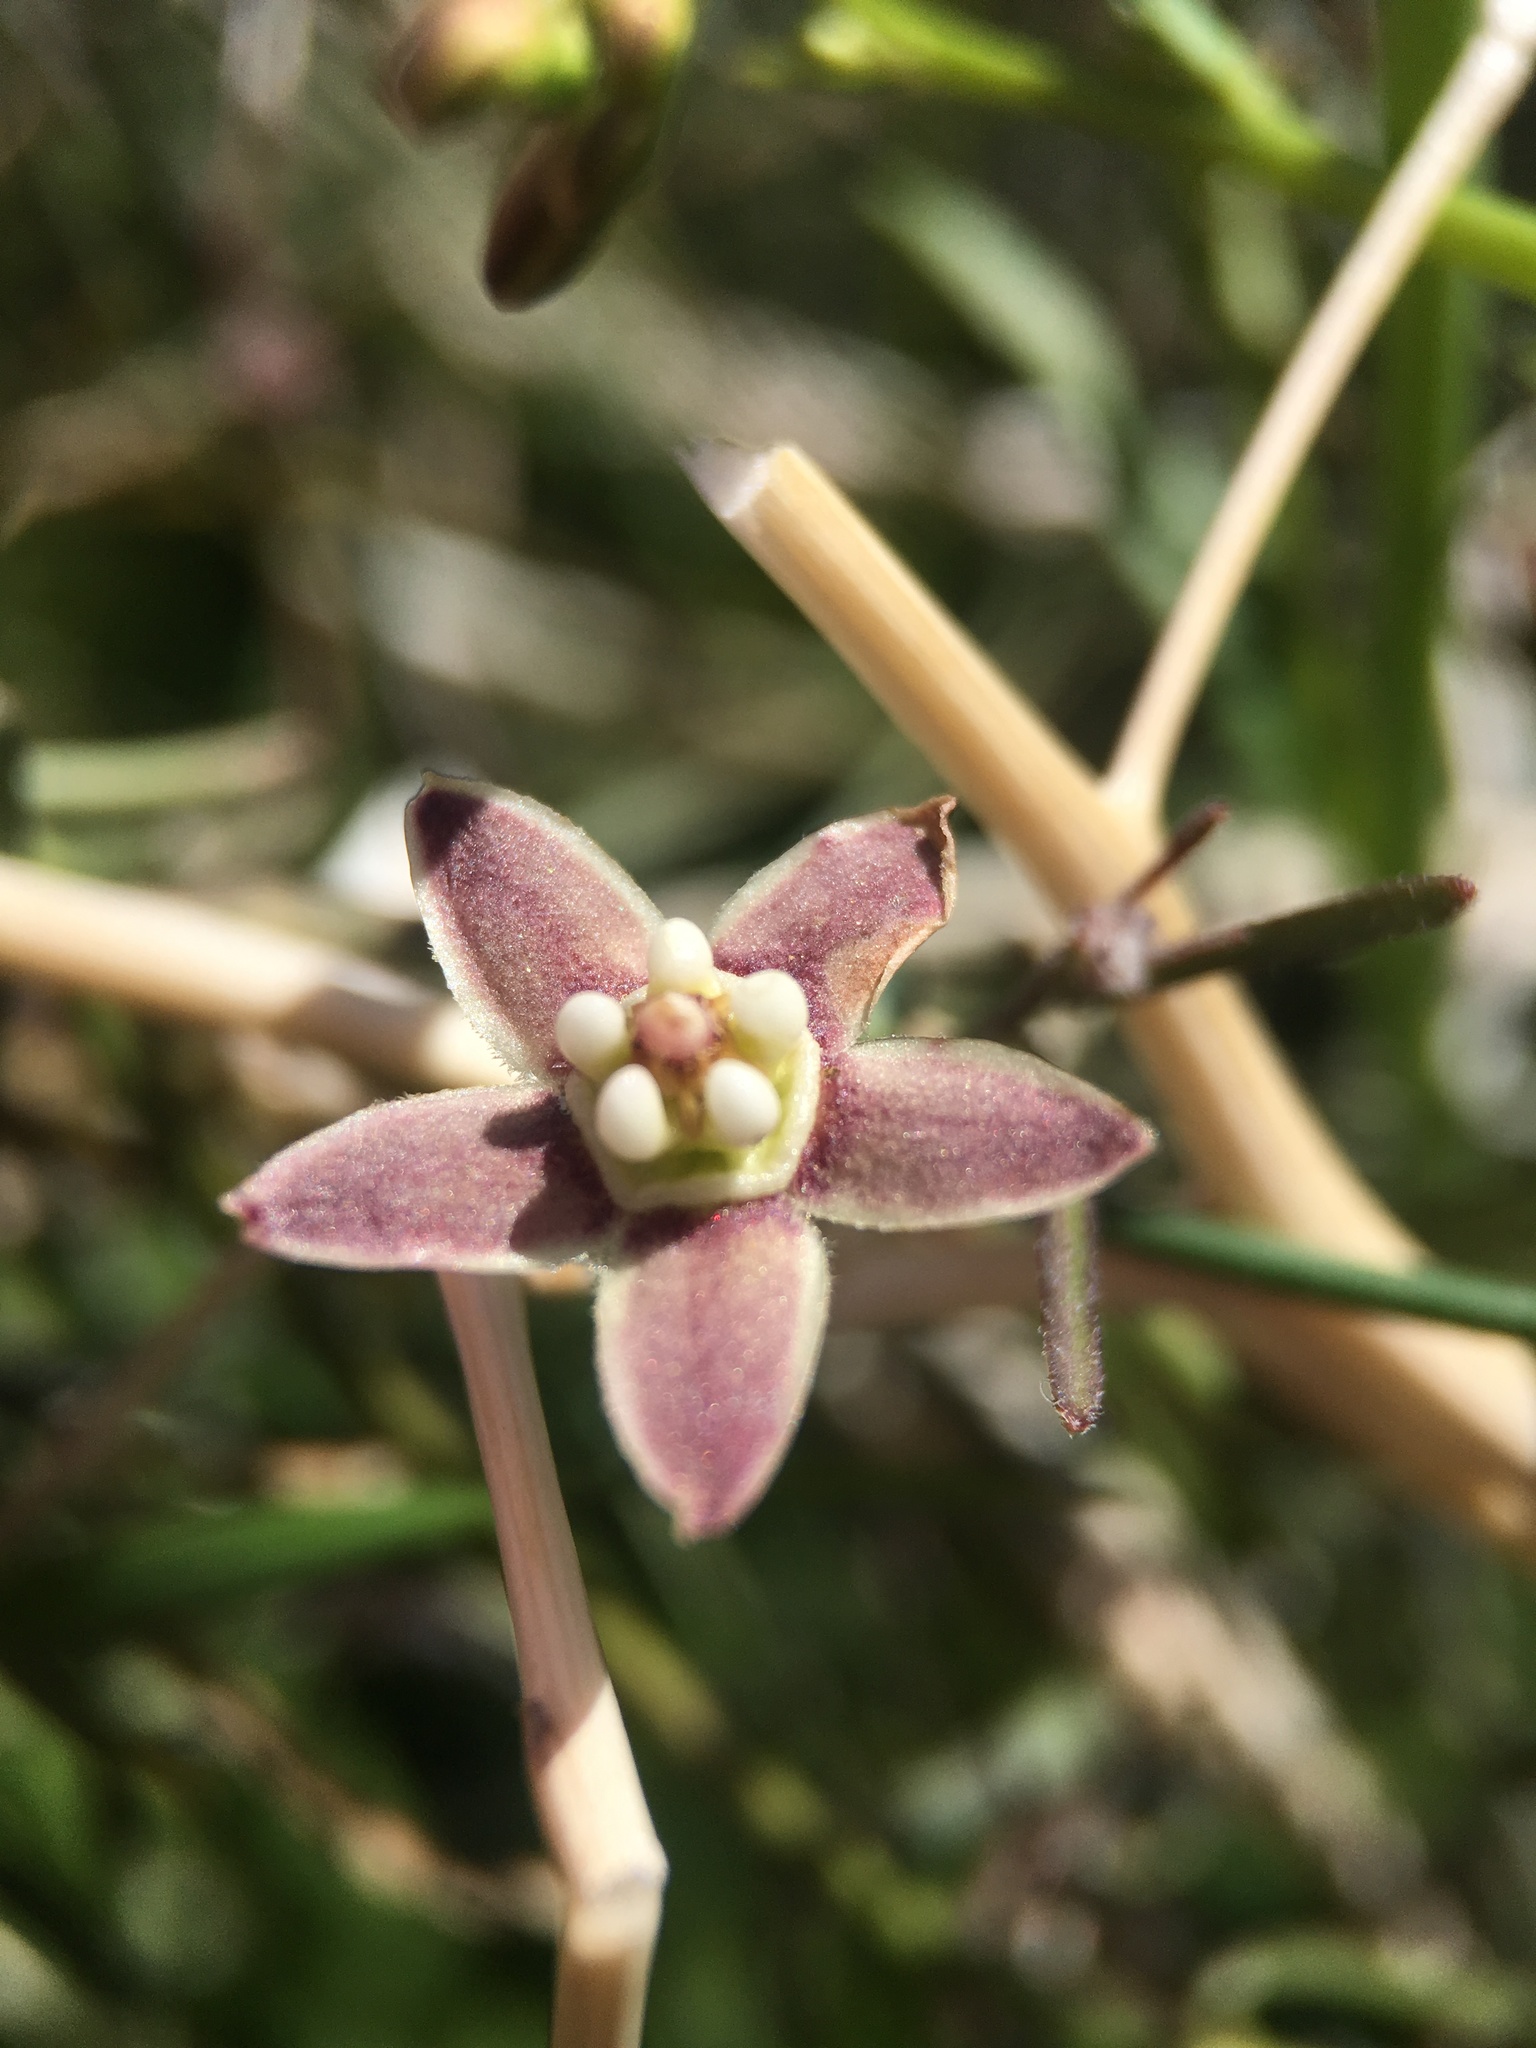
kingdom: Plantae
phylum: Tracheophyta
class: Magnoliopsida
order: Gentianales
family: Apocynaceae
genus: Funastrum
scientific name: Funastrum heterophyllum
